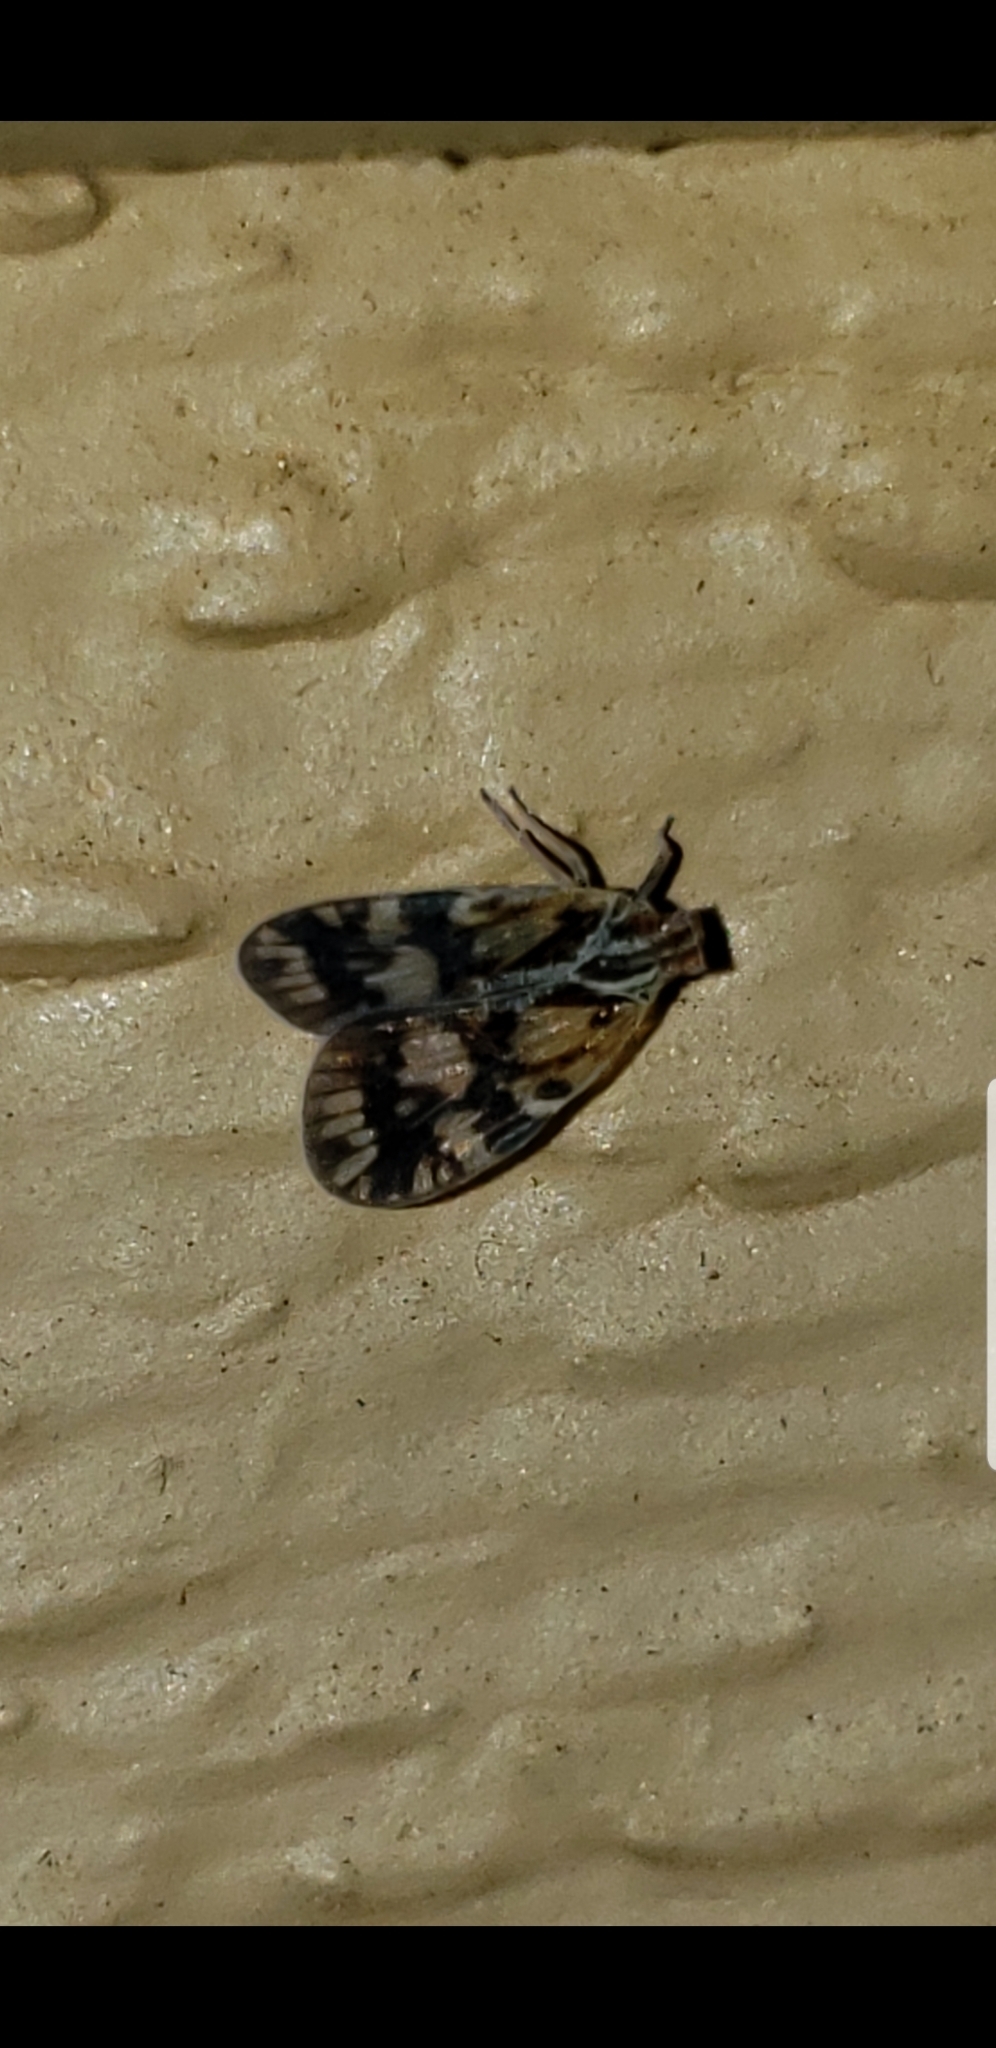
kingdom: Animalia
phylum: Arthropoda
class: Insecta
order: Hemiptera
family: Cixiidae
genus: Bothriocera
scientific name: Bothriocera cognita
